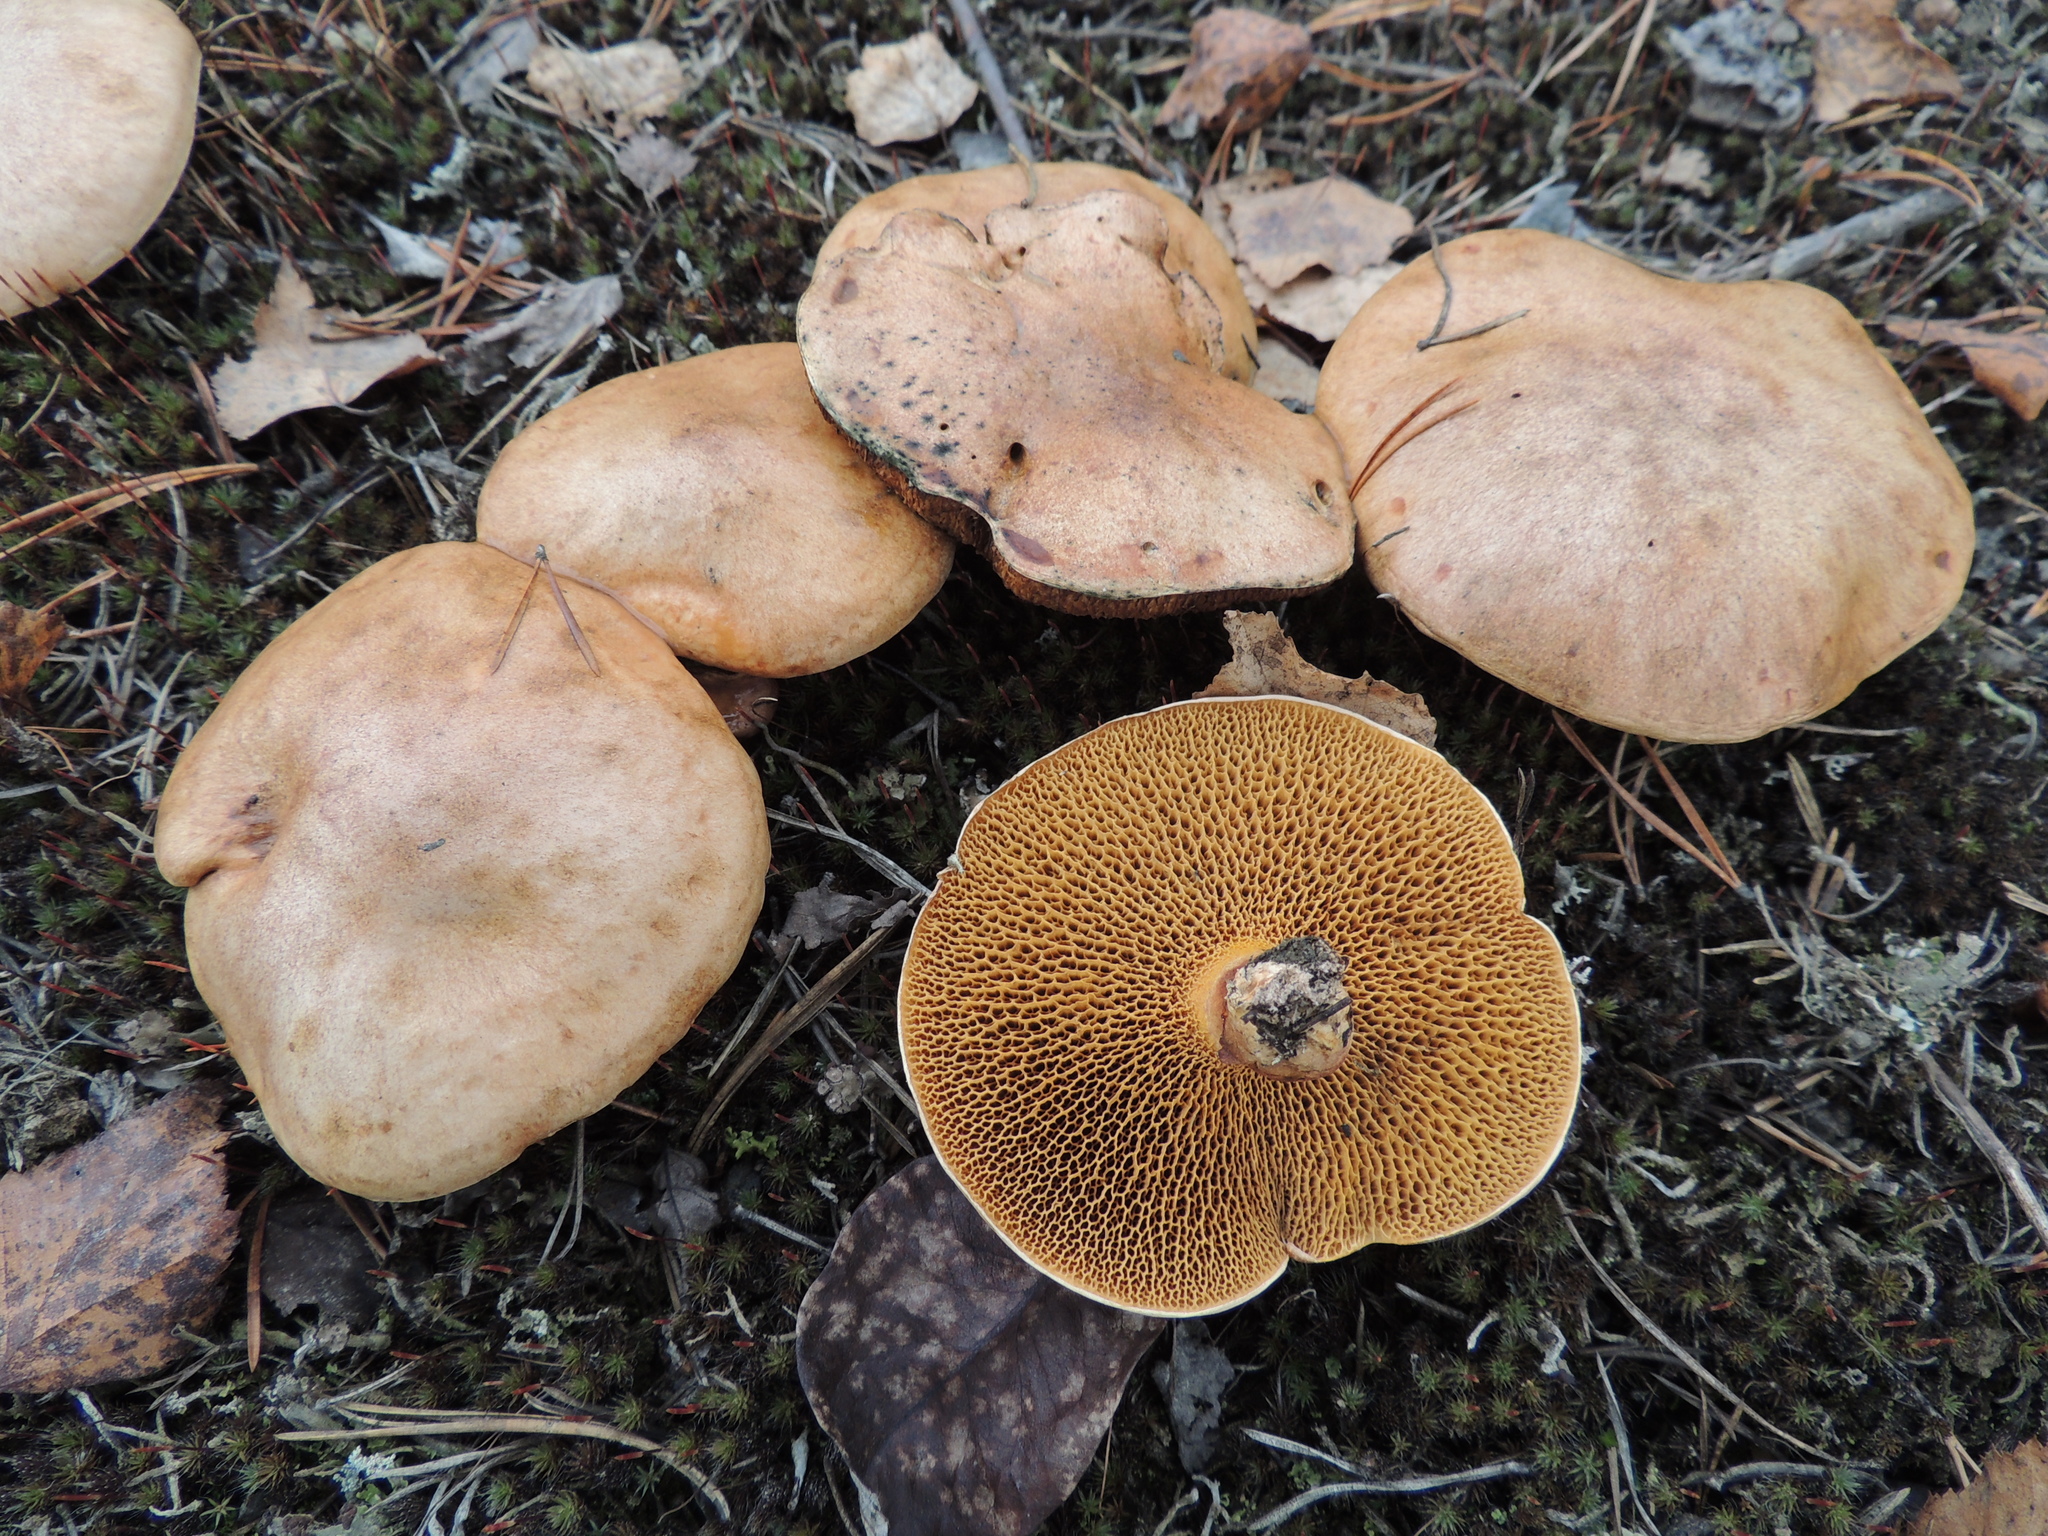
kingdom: Fungi
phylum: Basidiomycota
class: Agaricomycetes
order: Boletales
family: Suillaceae
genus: Suillus
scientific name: Suillus bovinus
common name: Bovine bolete
